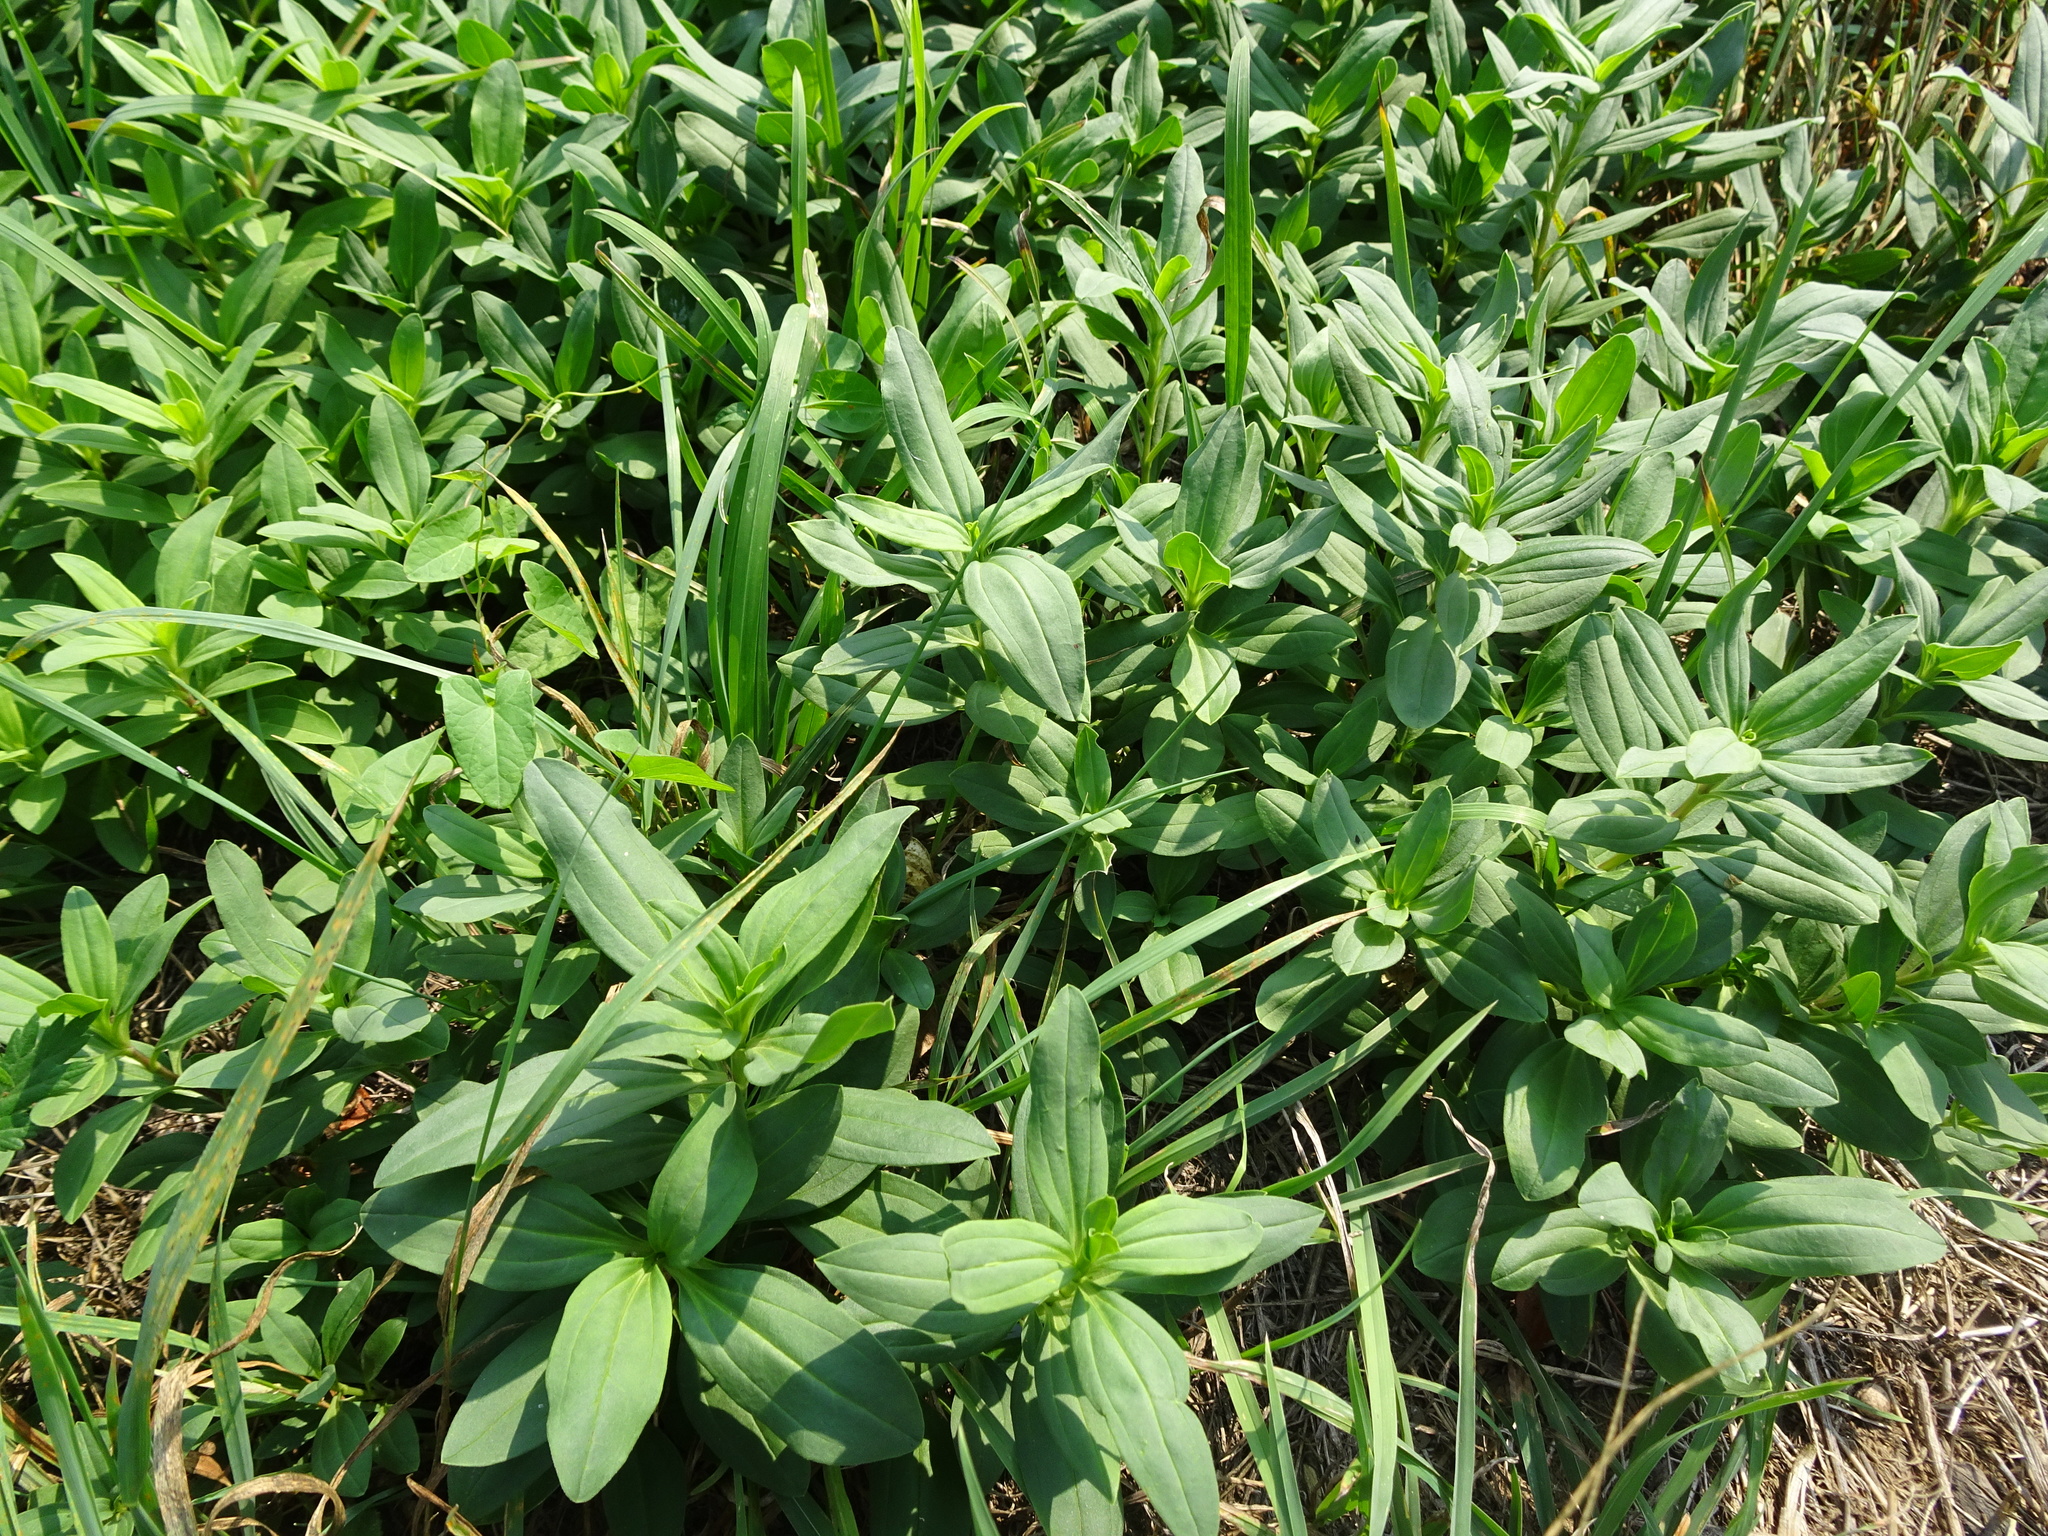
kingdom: Plantae
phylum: Tracheophyta
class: Magnoliopsida
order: Caryophyllales
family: Caryophyllaceae
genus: Saponaria
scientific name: Saponaria officinalis
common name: Soapwort
